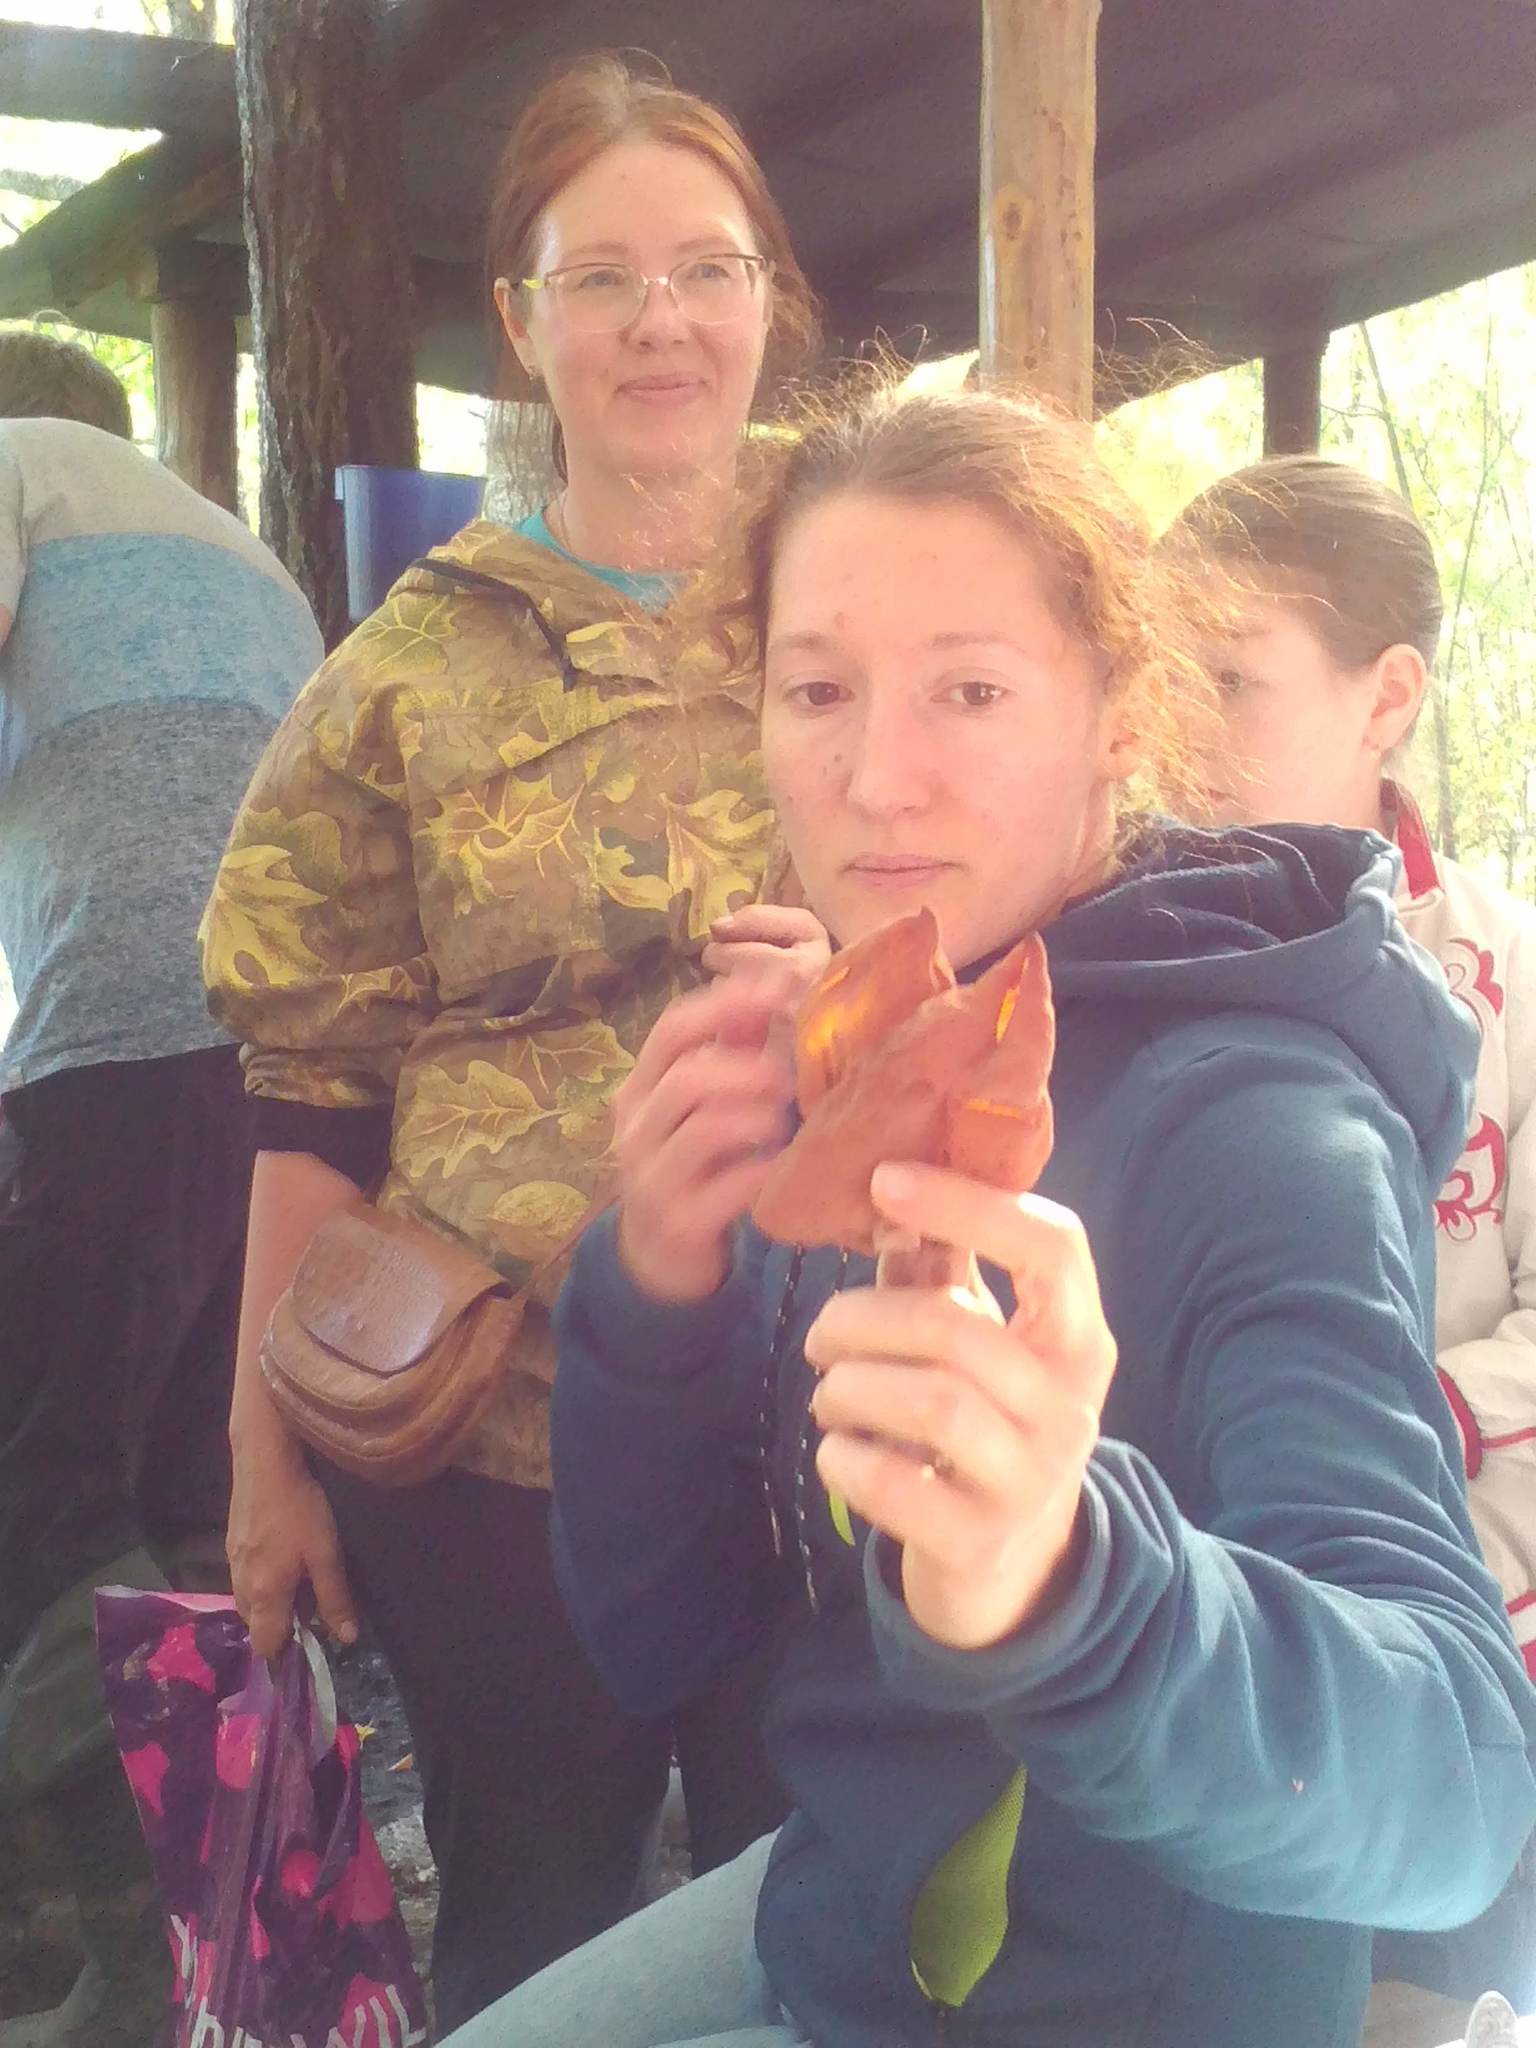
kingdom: Fungi
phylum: Ascomycota
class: Pezizomycetes
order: Pezizales
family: Discinaceae
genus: Gyromitra
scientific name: Gyromitra infula
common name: Pouched false morel
